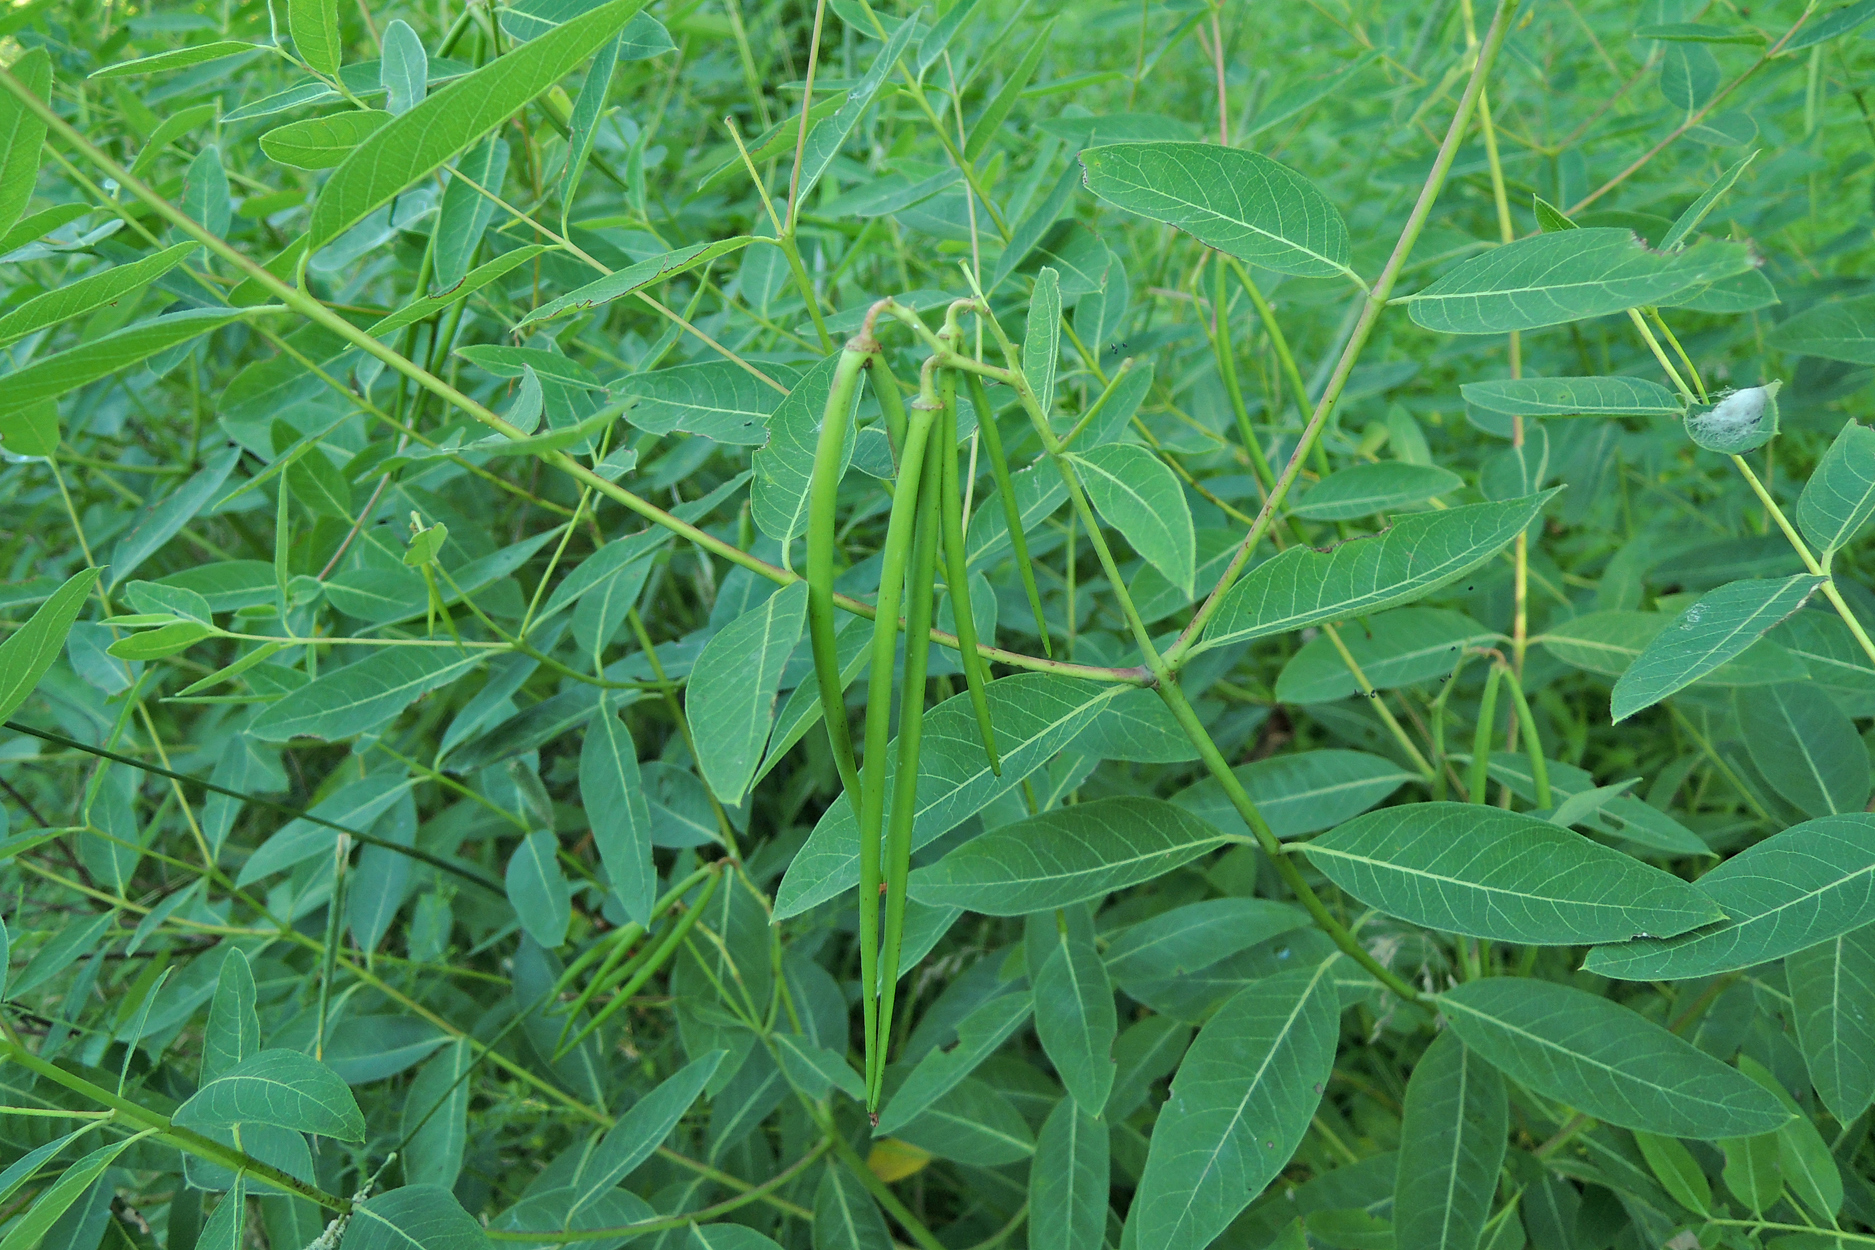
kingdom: Plantae
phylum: Tracheophyta
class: Magnoliopsida
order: Gentianales
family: Apocynaceae
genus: Apocynum
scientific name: Apocynum cannabinum
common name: Hemp dogbane
